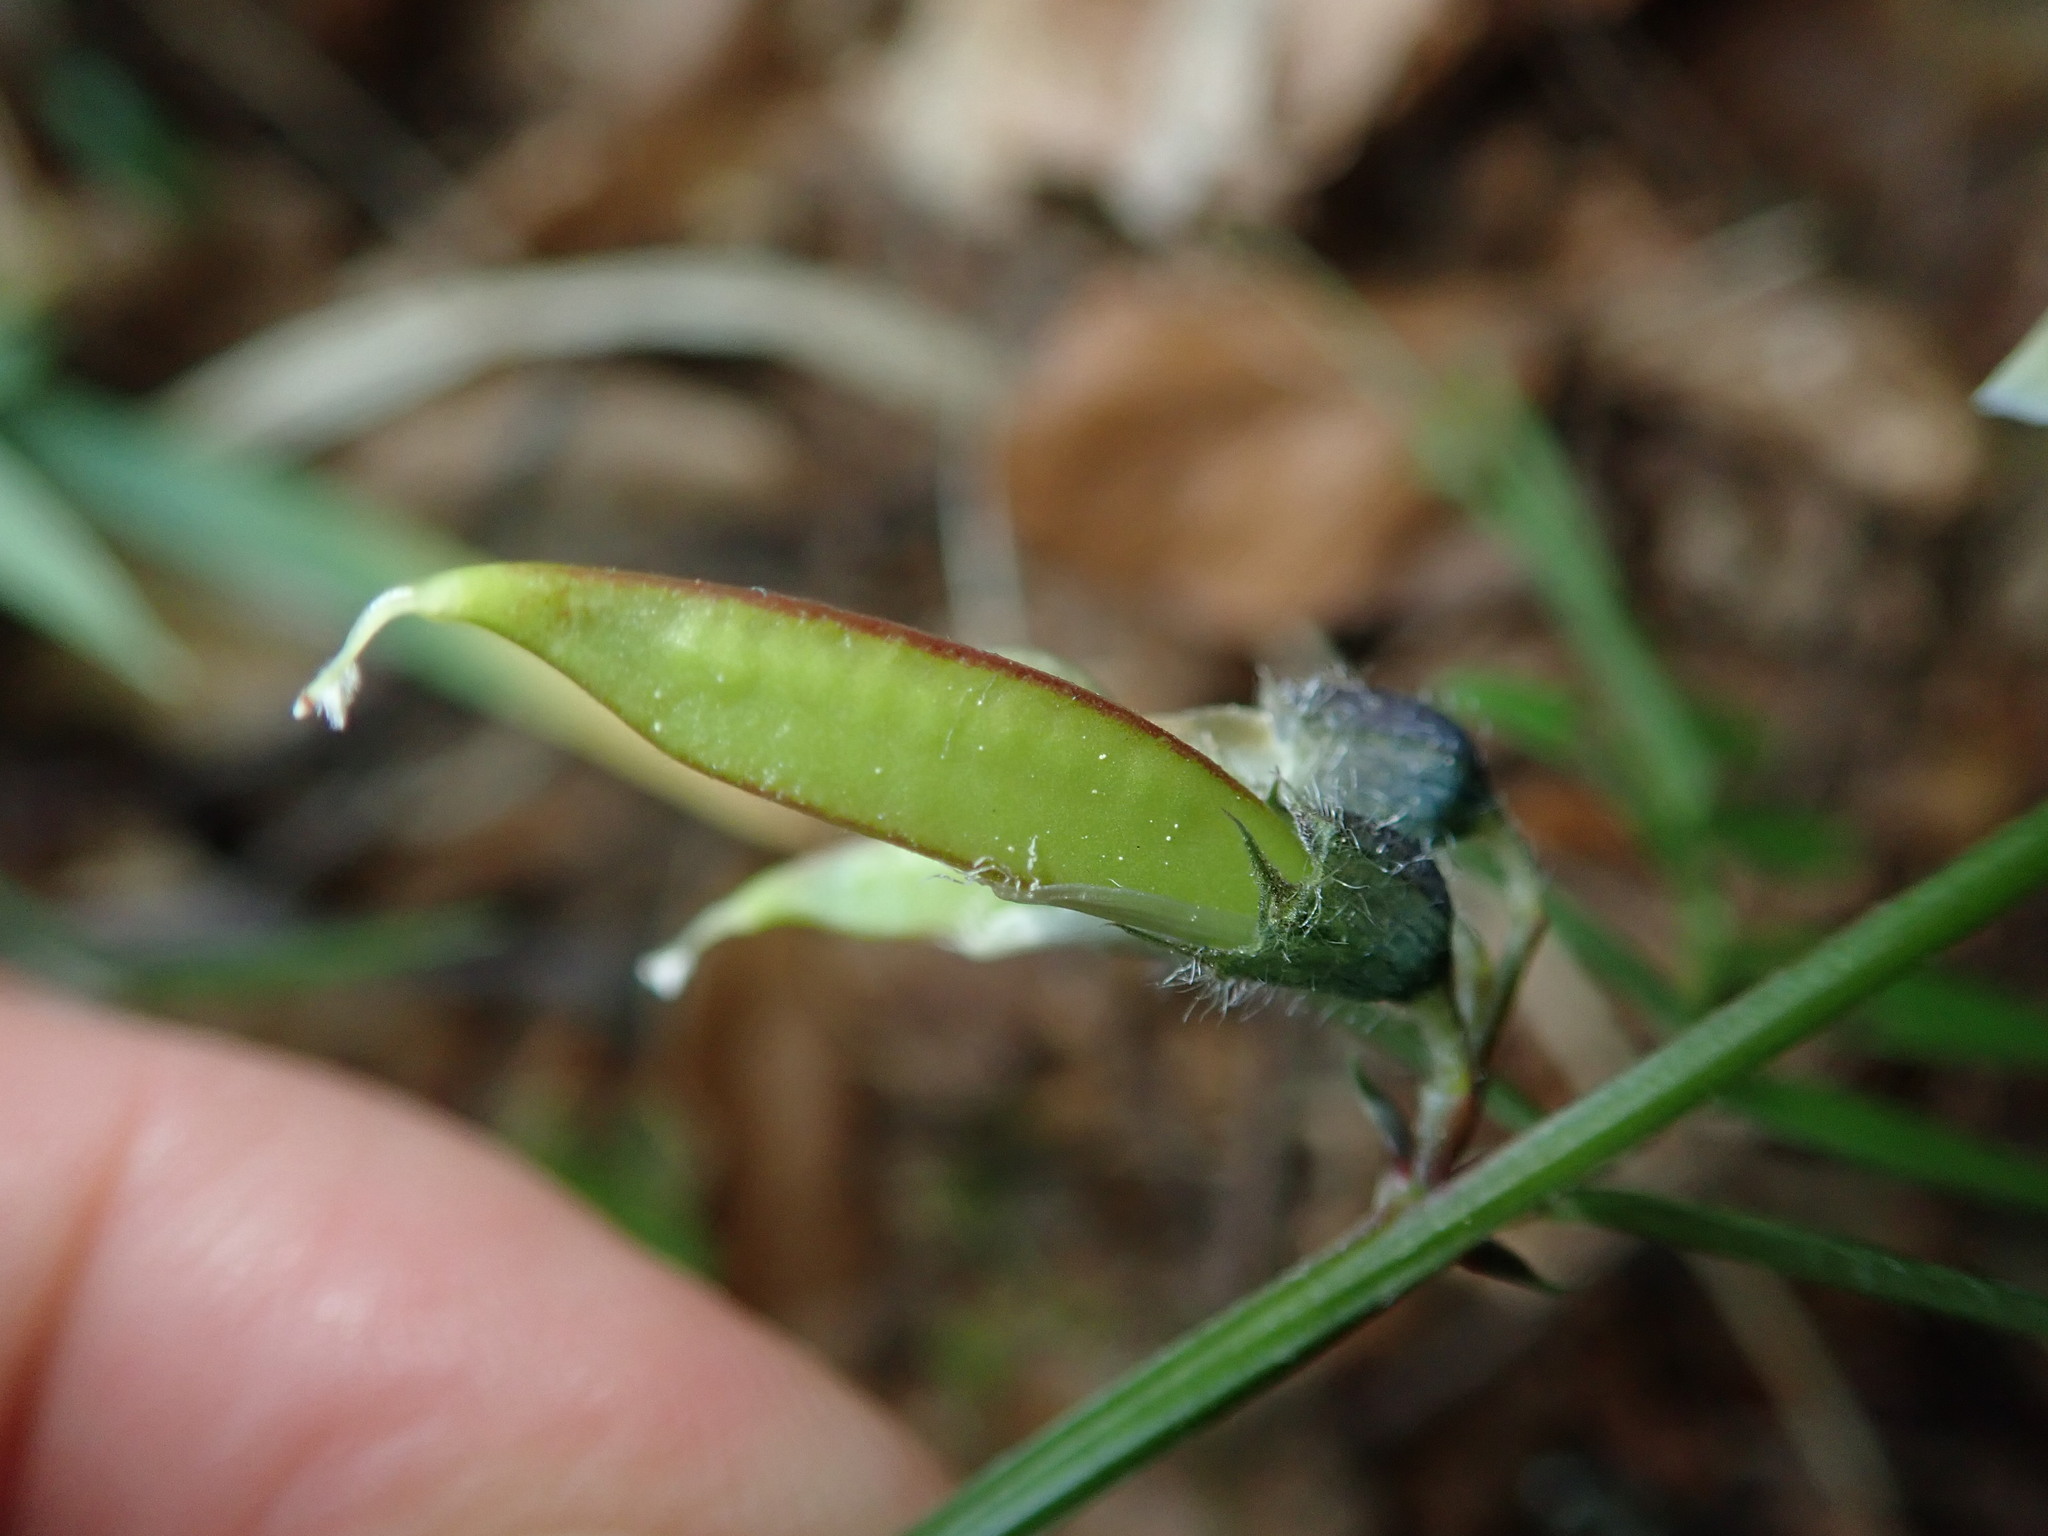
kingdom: Plantae
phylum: Tracheophyta
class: Magnoliopsida
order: Fabales
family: Fabaceae
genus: Vicia
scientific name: Vicia sepium
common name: Bush vetch
